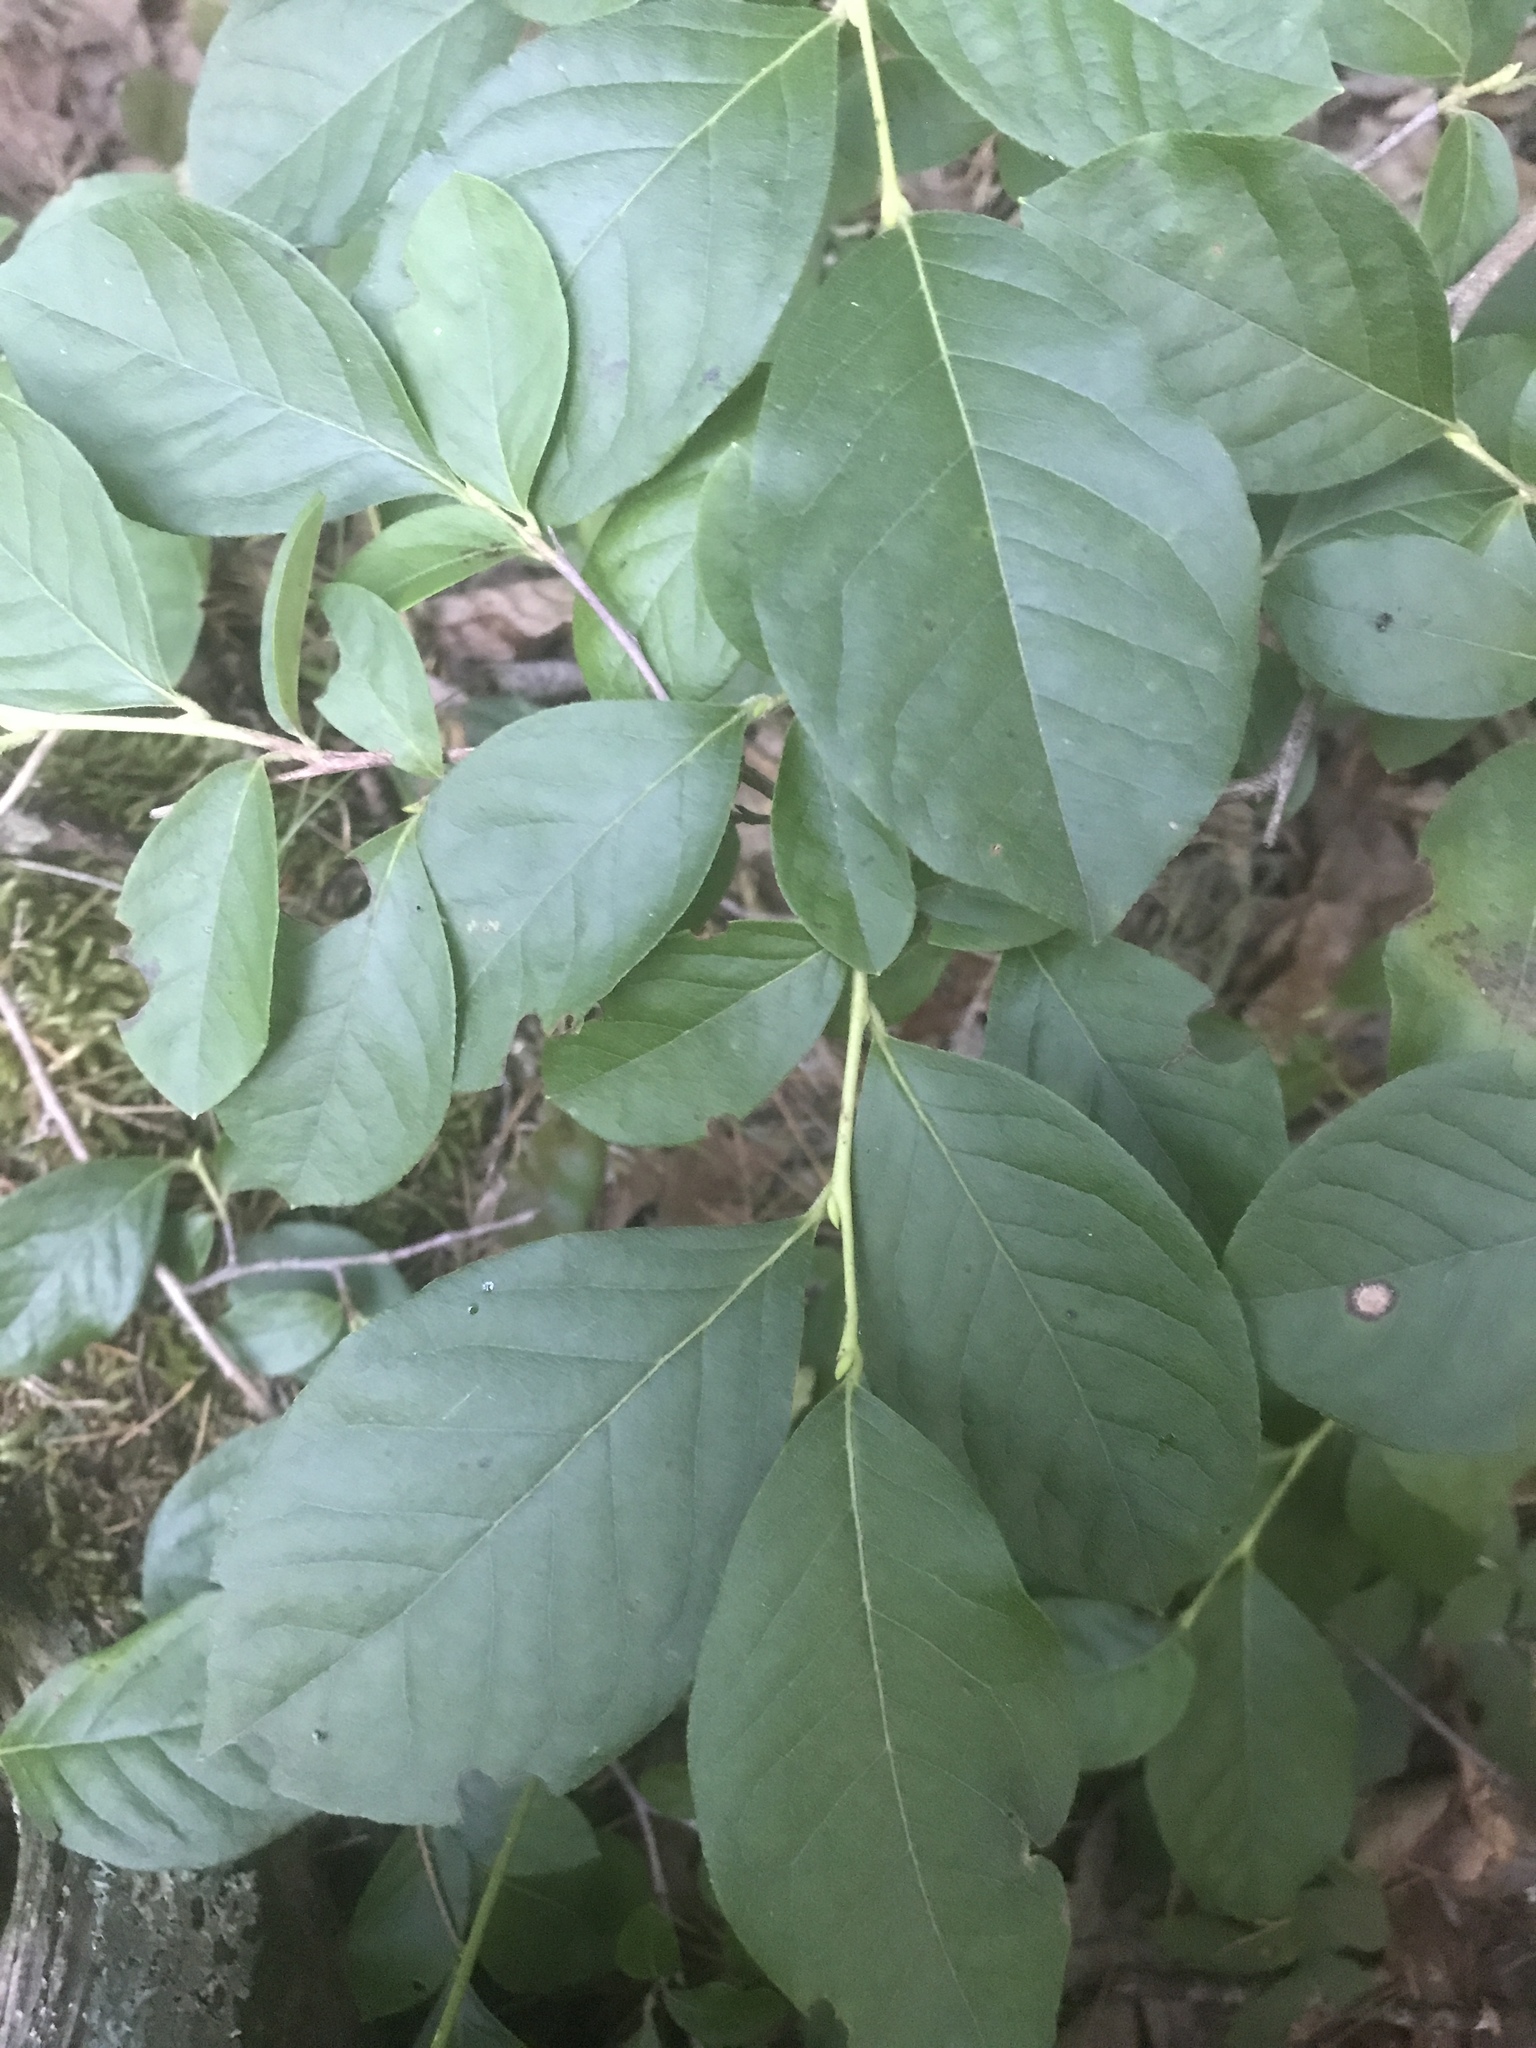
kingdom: Plantae
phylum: Tracheophyta
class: Magnoliopsida
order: Ericales
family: Ericaceae
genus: Lyonia
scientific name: Lyonia ligustrina
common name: Maleberry
